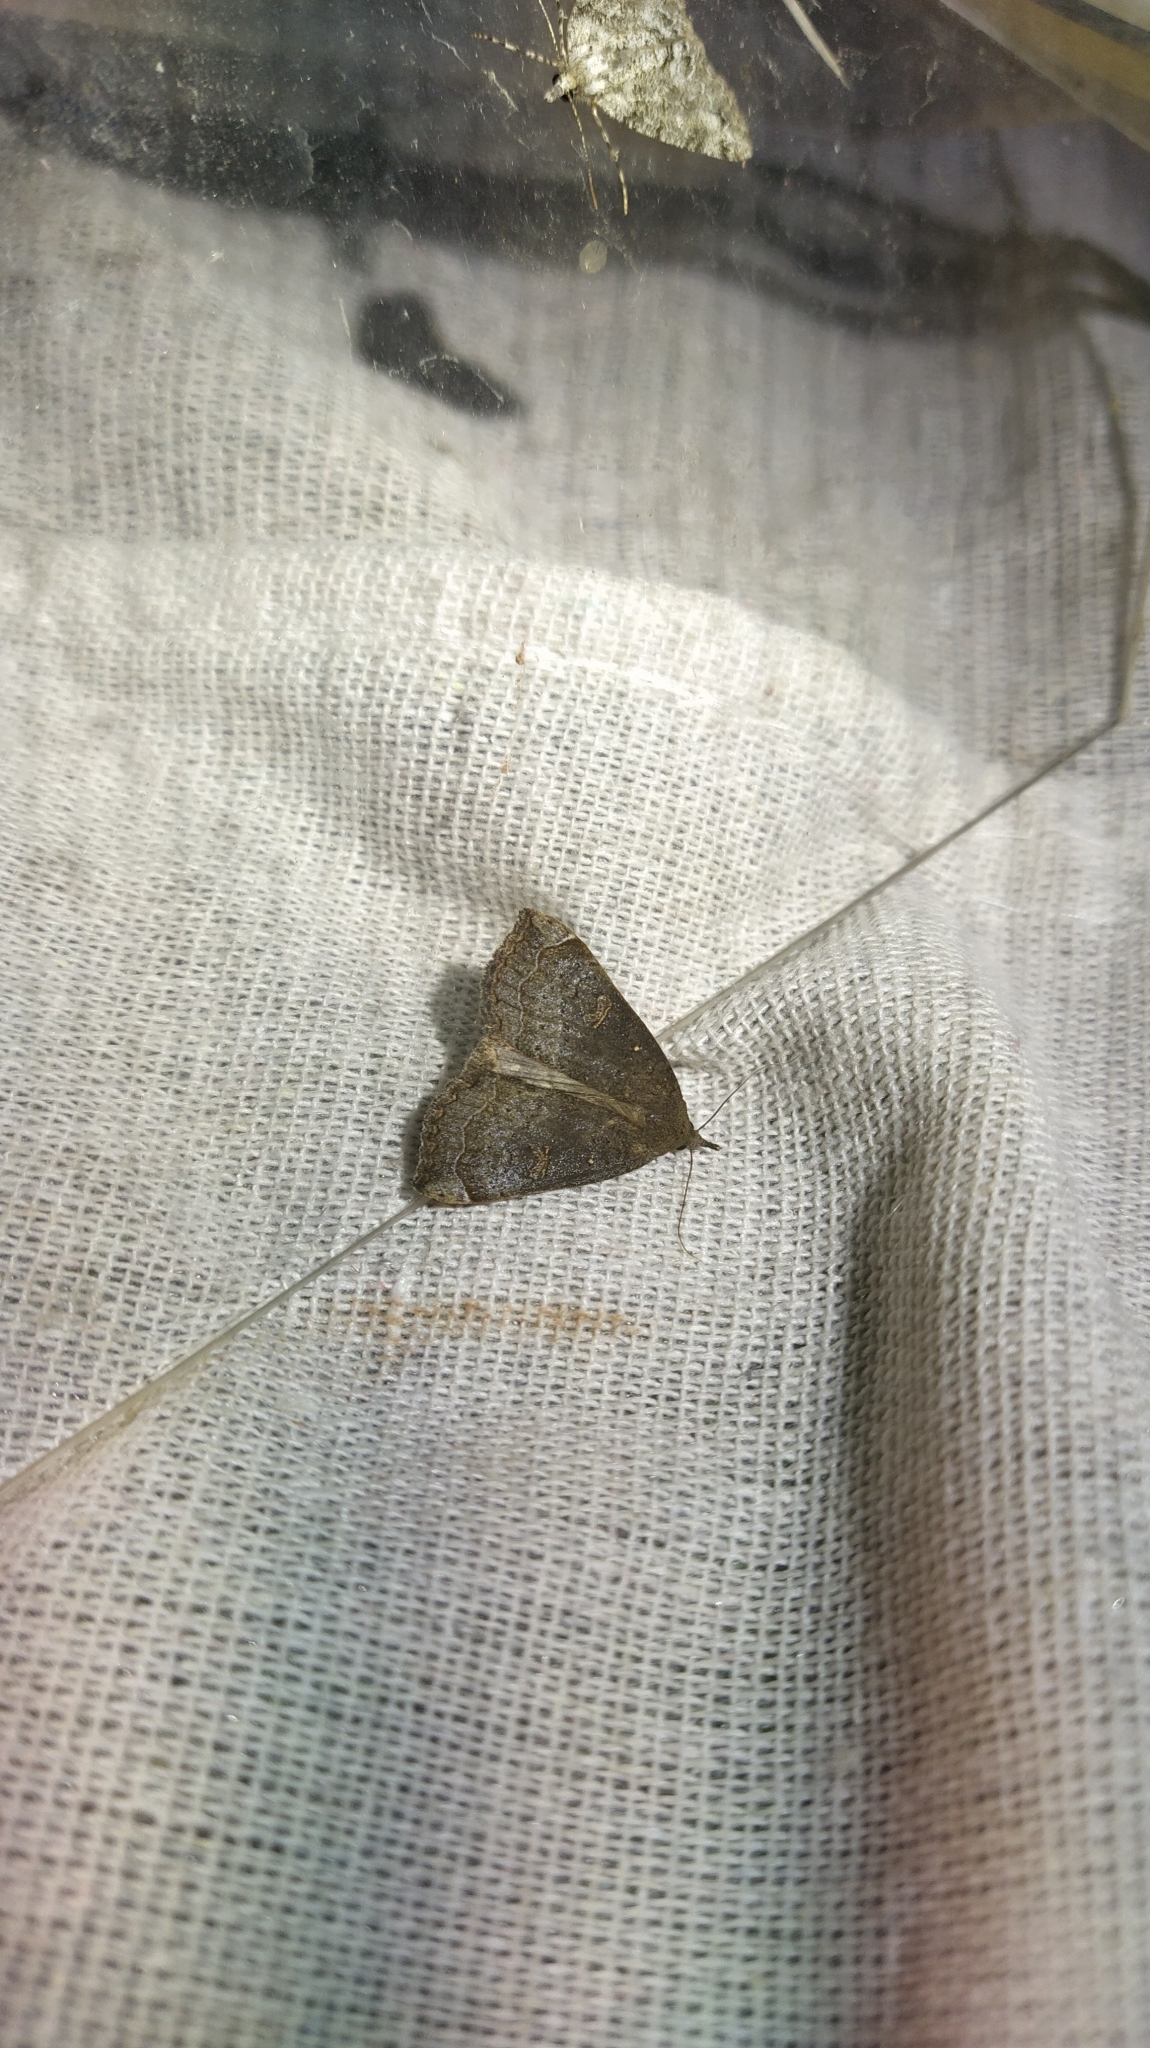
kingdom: Animalia
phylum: Arthropoda
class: Insecta
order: Lepidoptera
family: Erebidae
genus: Rhapsa
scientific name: Rhapsa scotosialis
